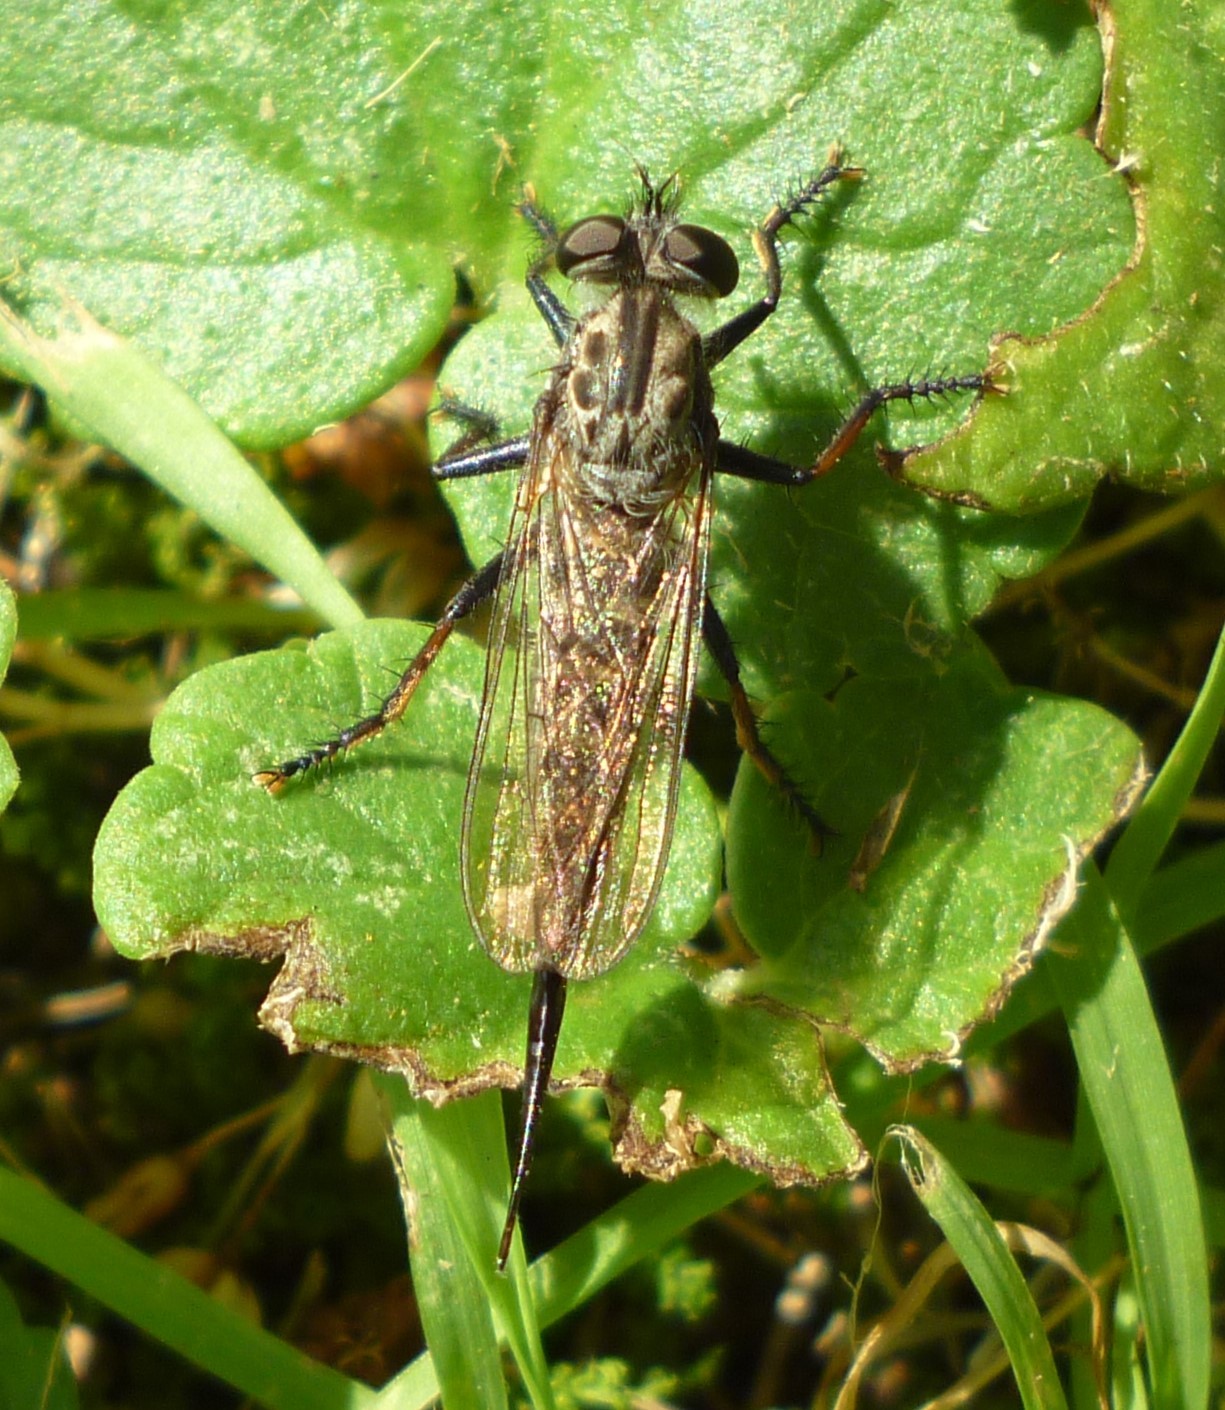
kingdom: Animalia
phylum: Arthropoda
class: Insecta
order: Diptera
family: Asilidae
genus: Efferia
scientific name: Efferia aestuans
